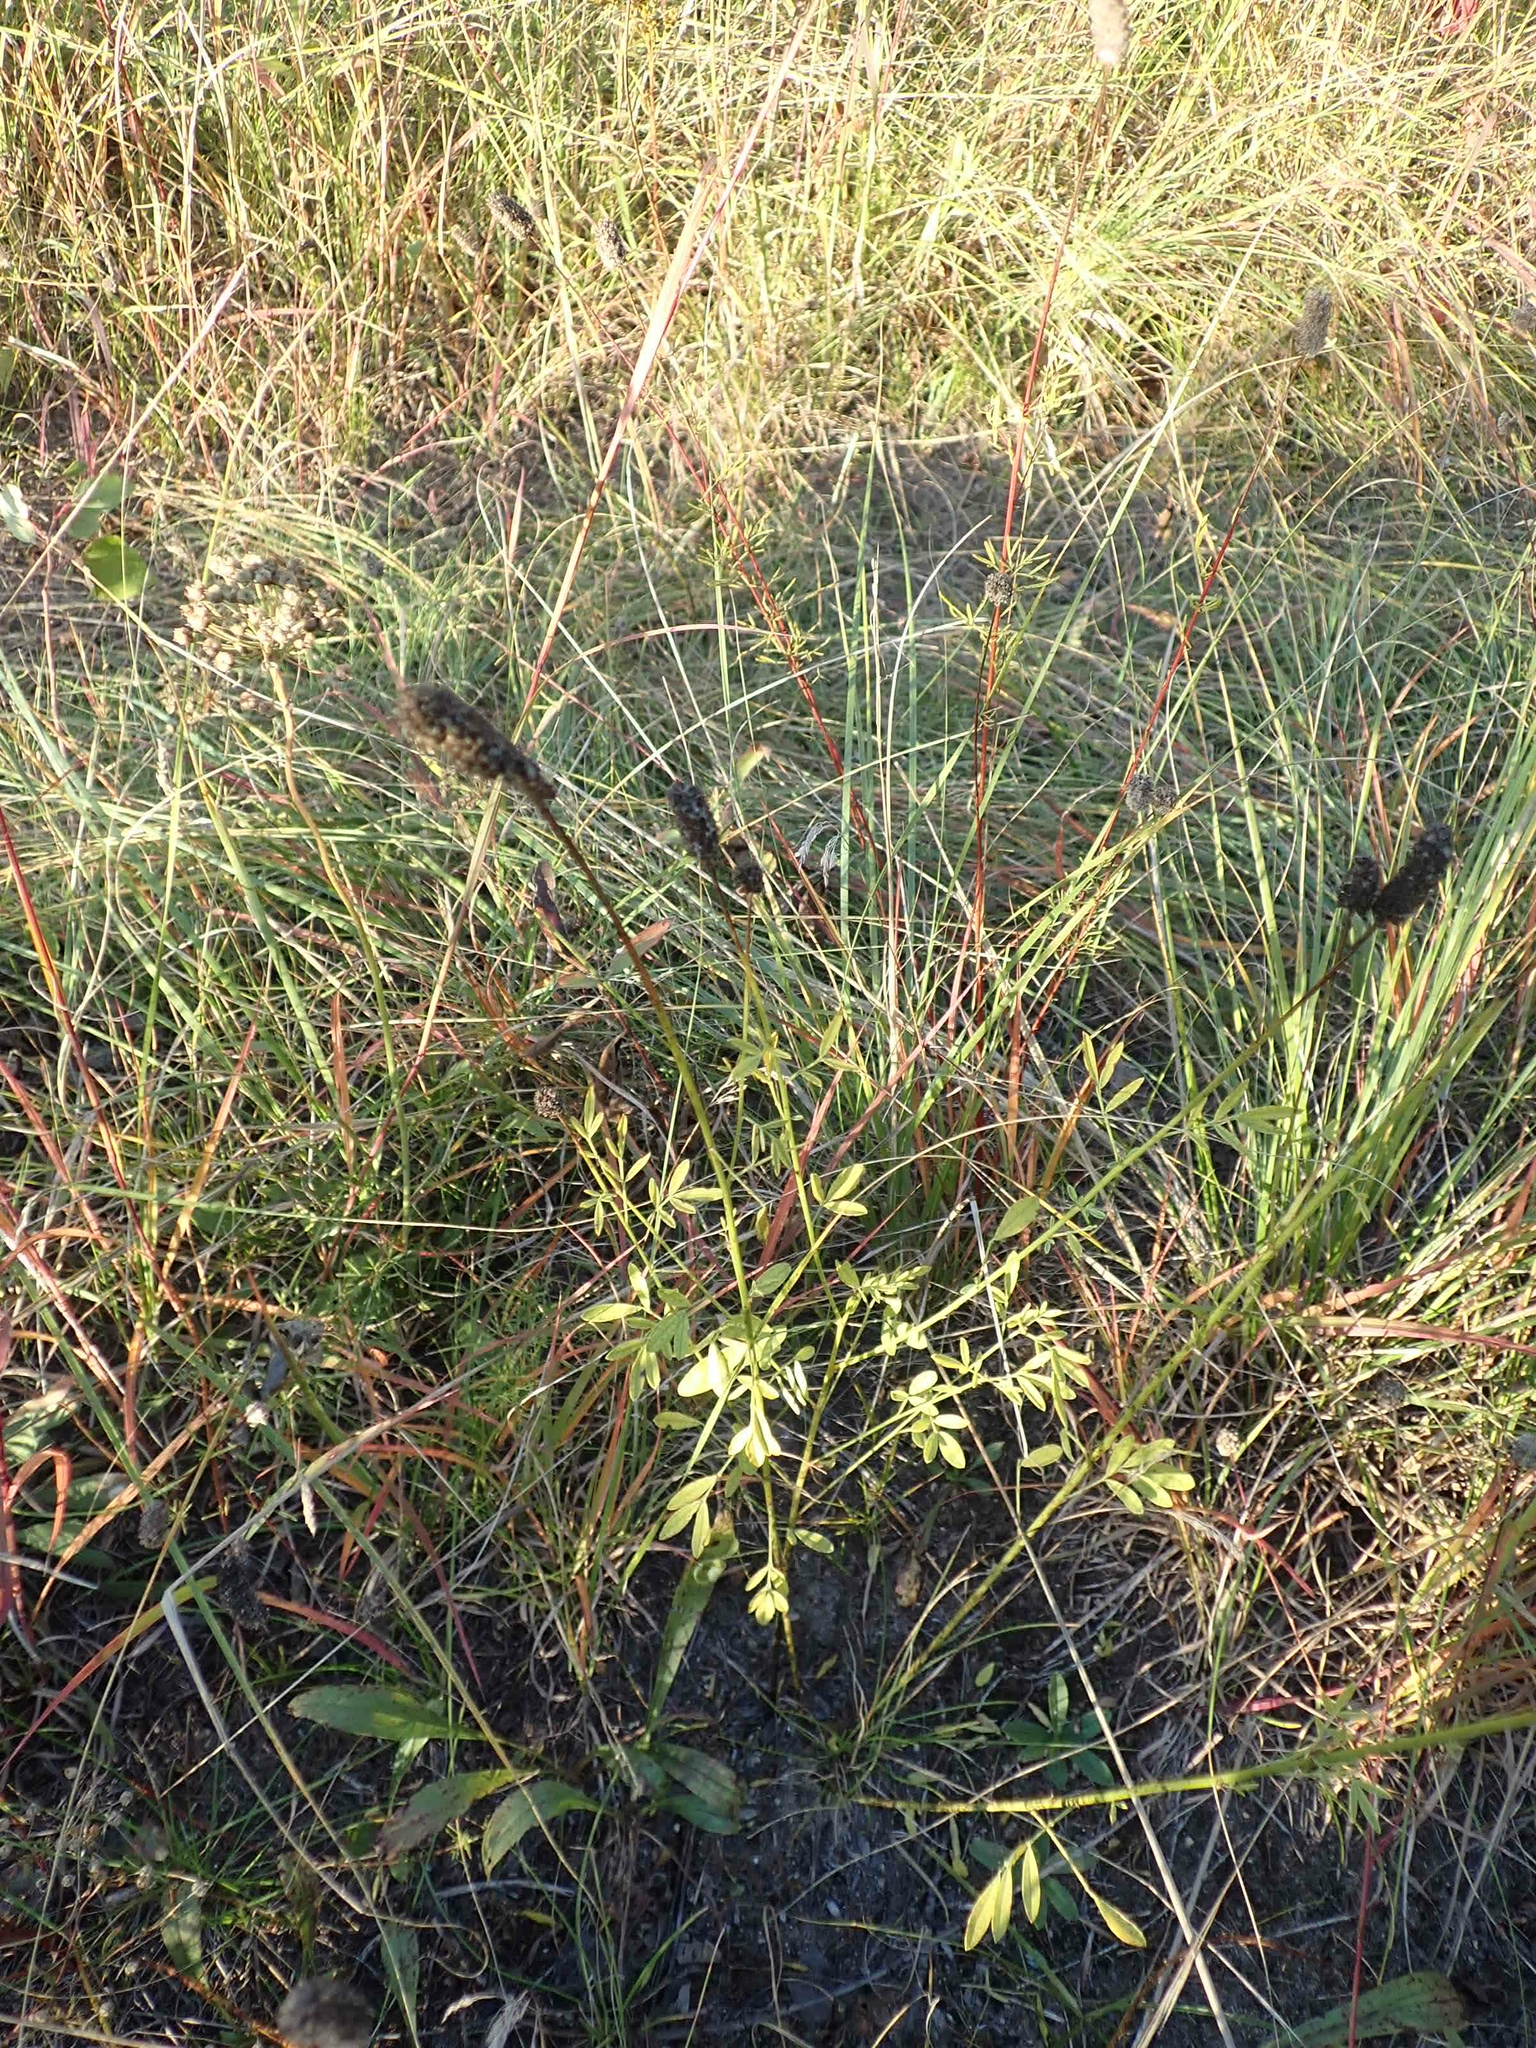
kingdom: Plantae
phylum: Tracheophyta
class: Magnoliopsida
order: Fabales
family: Fabaceae
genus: Dalea
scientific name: Dalea candida
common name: White prairie-clover
